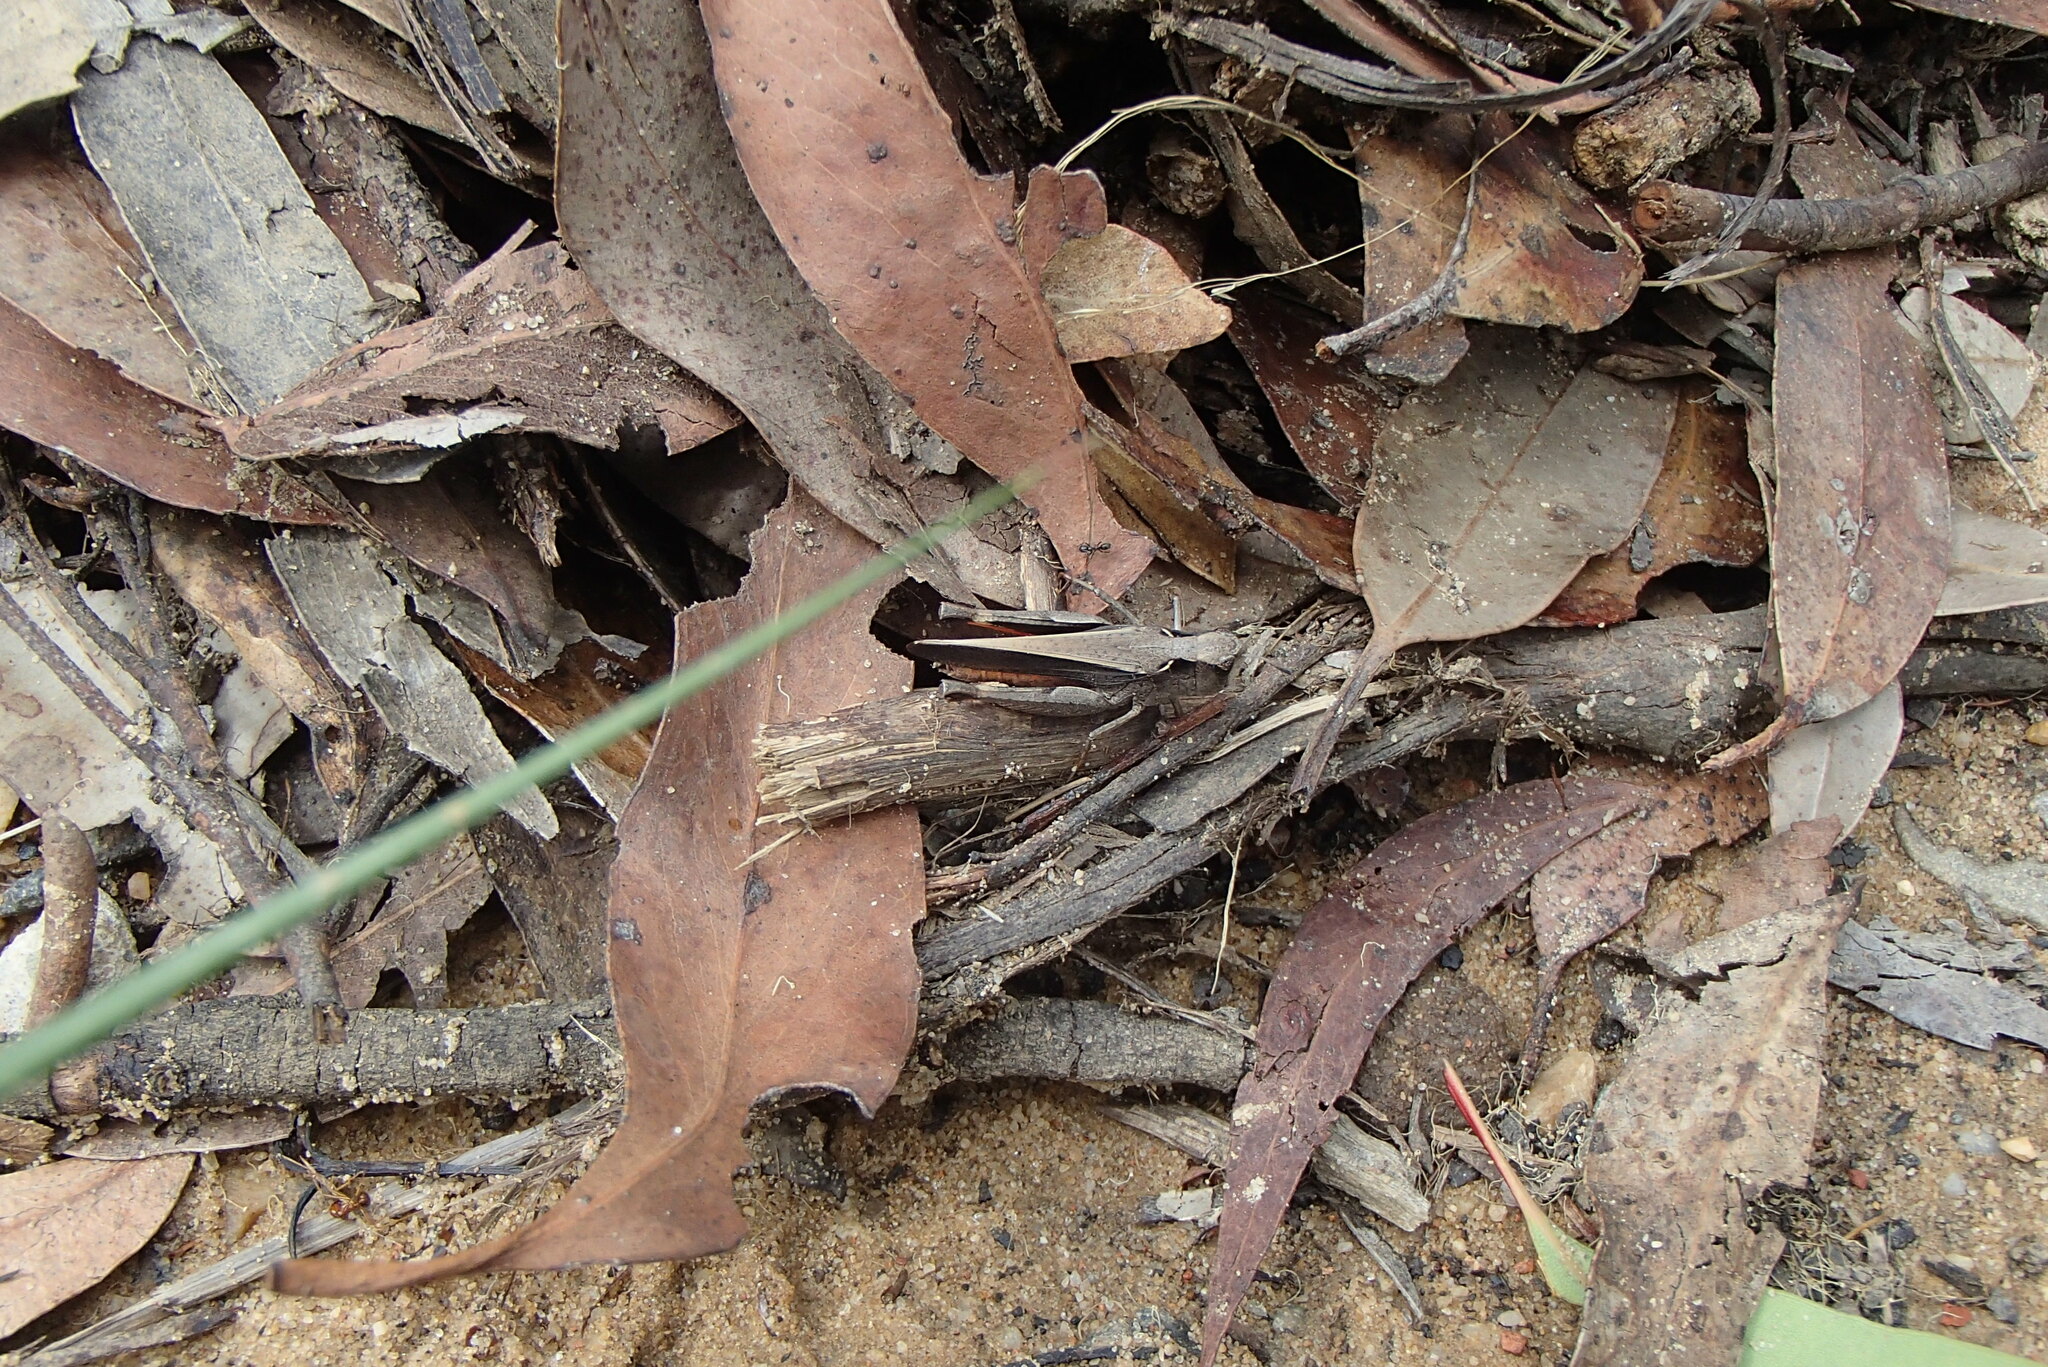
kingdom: Animalia
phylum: Arthropoda
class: Insecta
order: Orthoptera
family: Acrididae
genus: Cryptobothrus
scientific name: Cryptobothrus chrysophorus
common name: Golden bandwing
